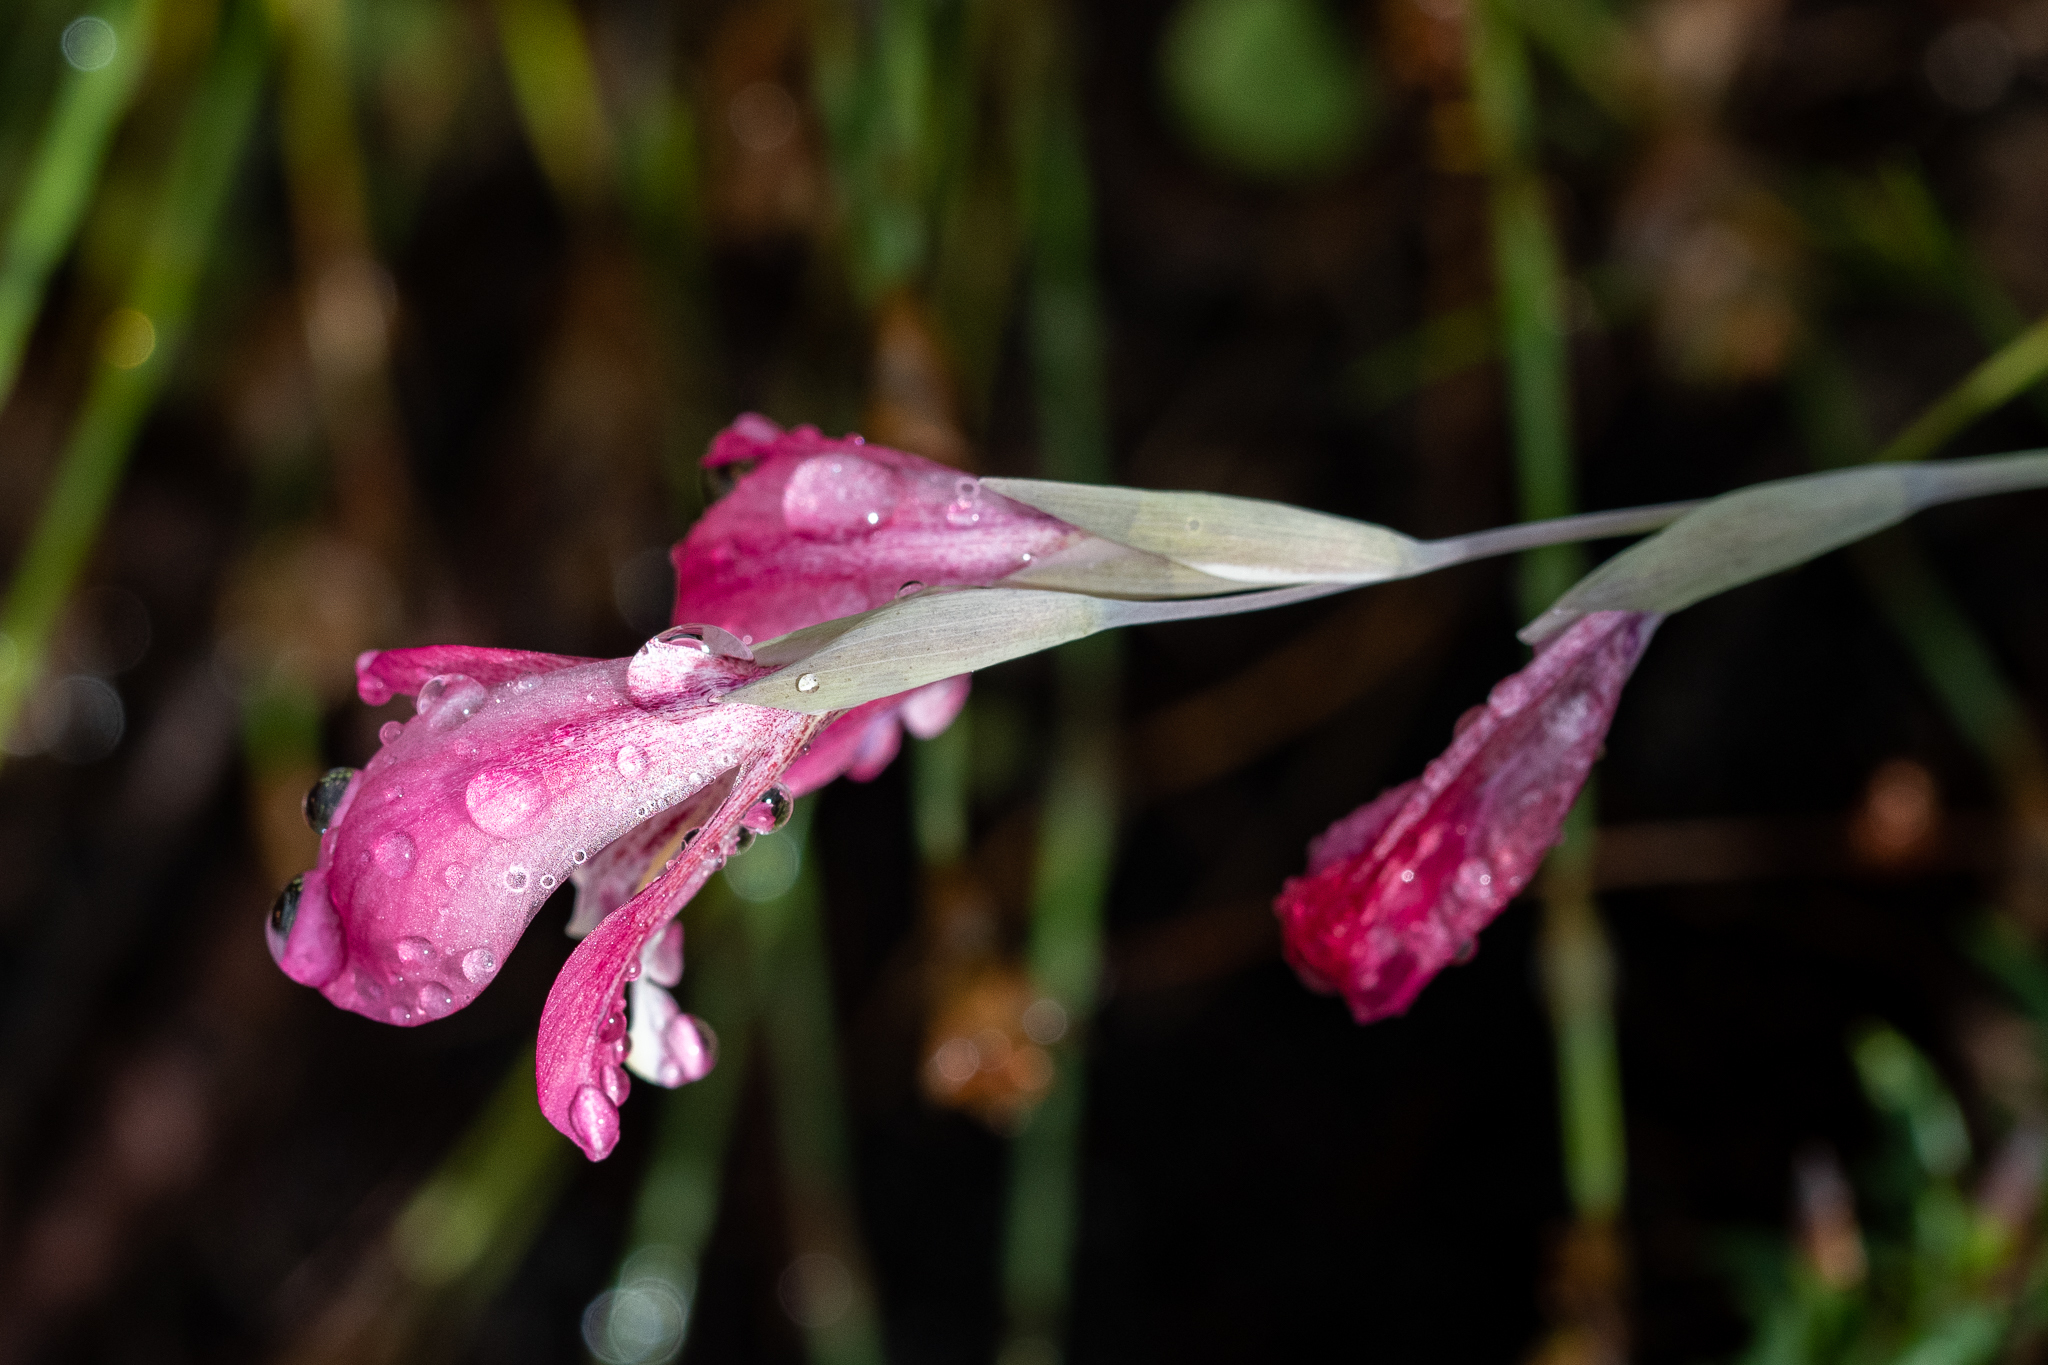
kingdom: Plantae
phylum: Tracheophyta
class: Liliopsida
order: Asparagales
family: Iridaceae
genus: Gladiolus
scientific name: Gladiolus brevifolius
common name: March pypie
